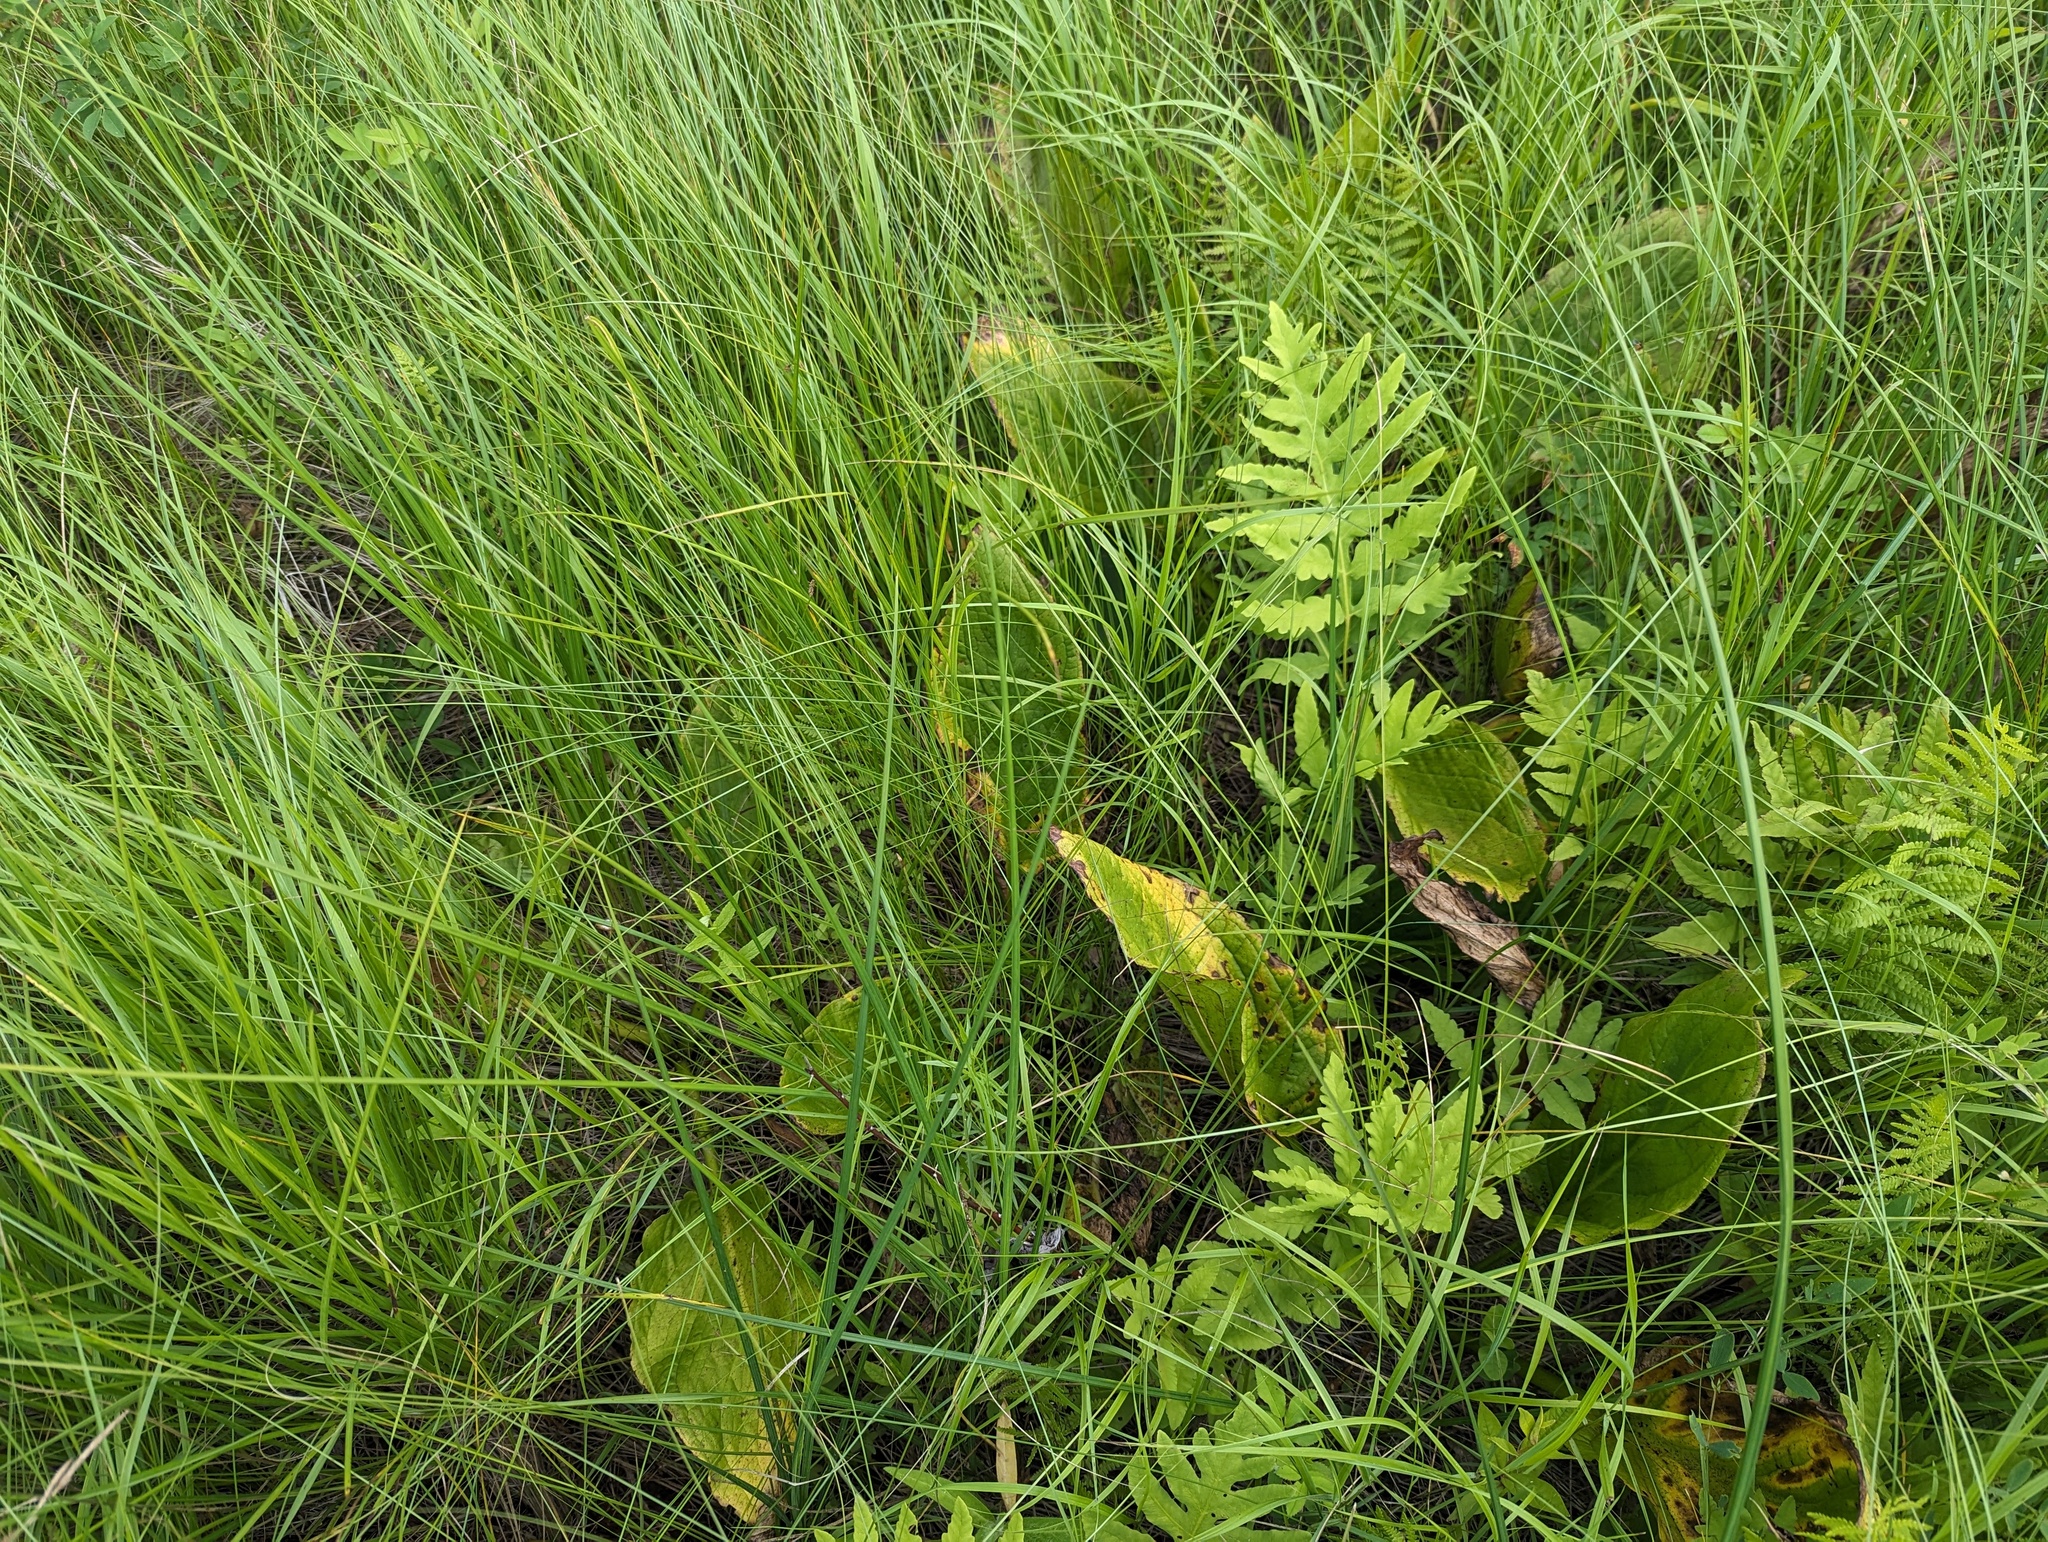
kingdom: Plantae
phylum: Tracheophyta
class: Liliopsida
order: Alismatales
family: Araceae
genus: Symplocarpus
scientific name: Symplocarpus foetidus
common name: Eastern skunk cabbage
